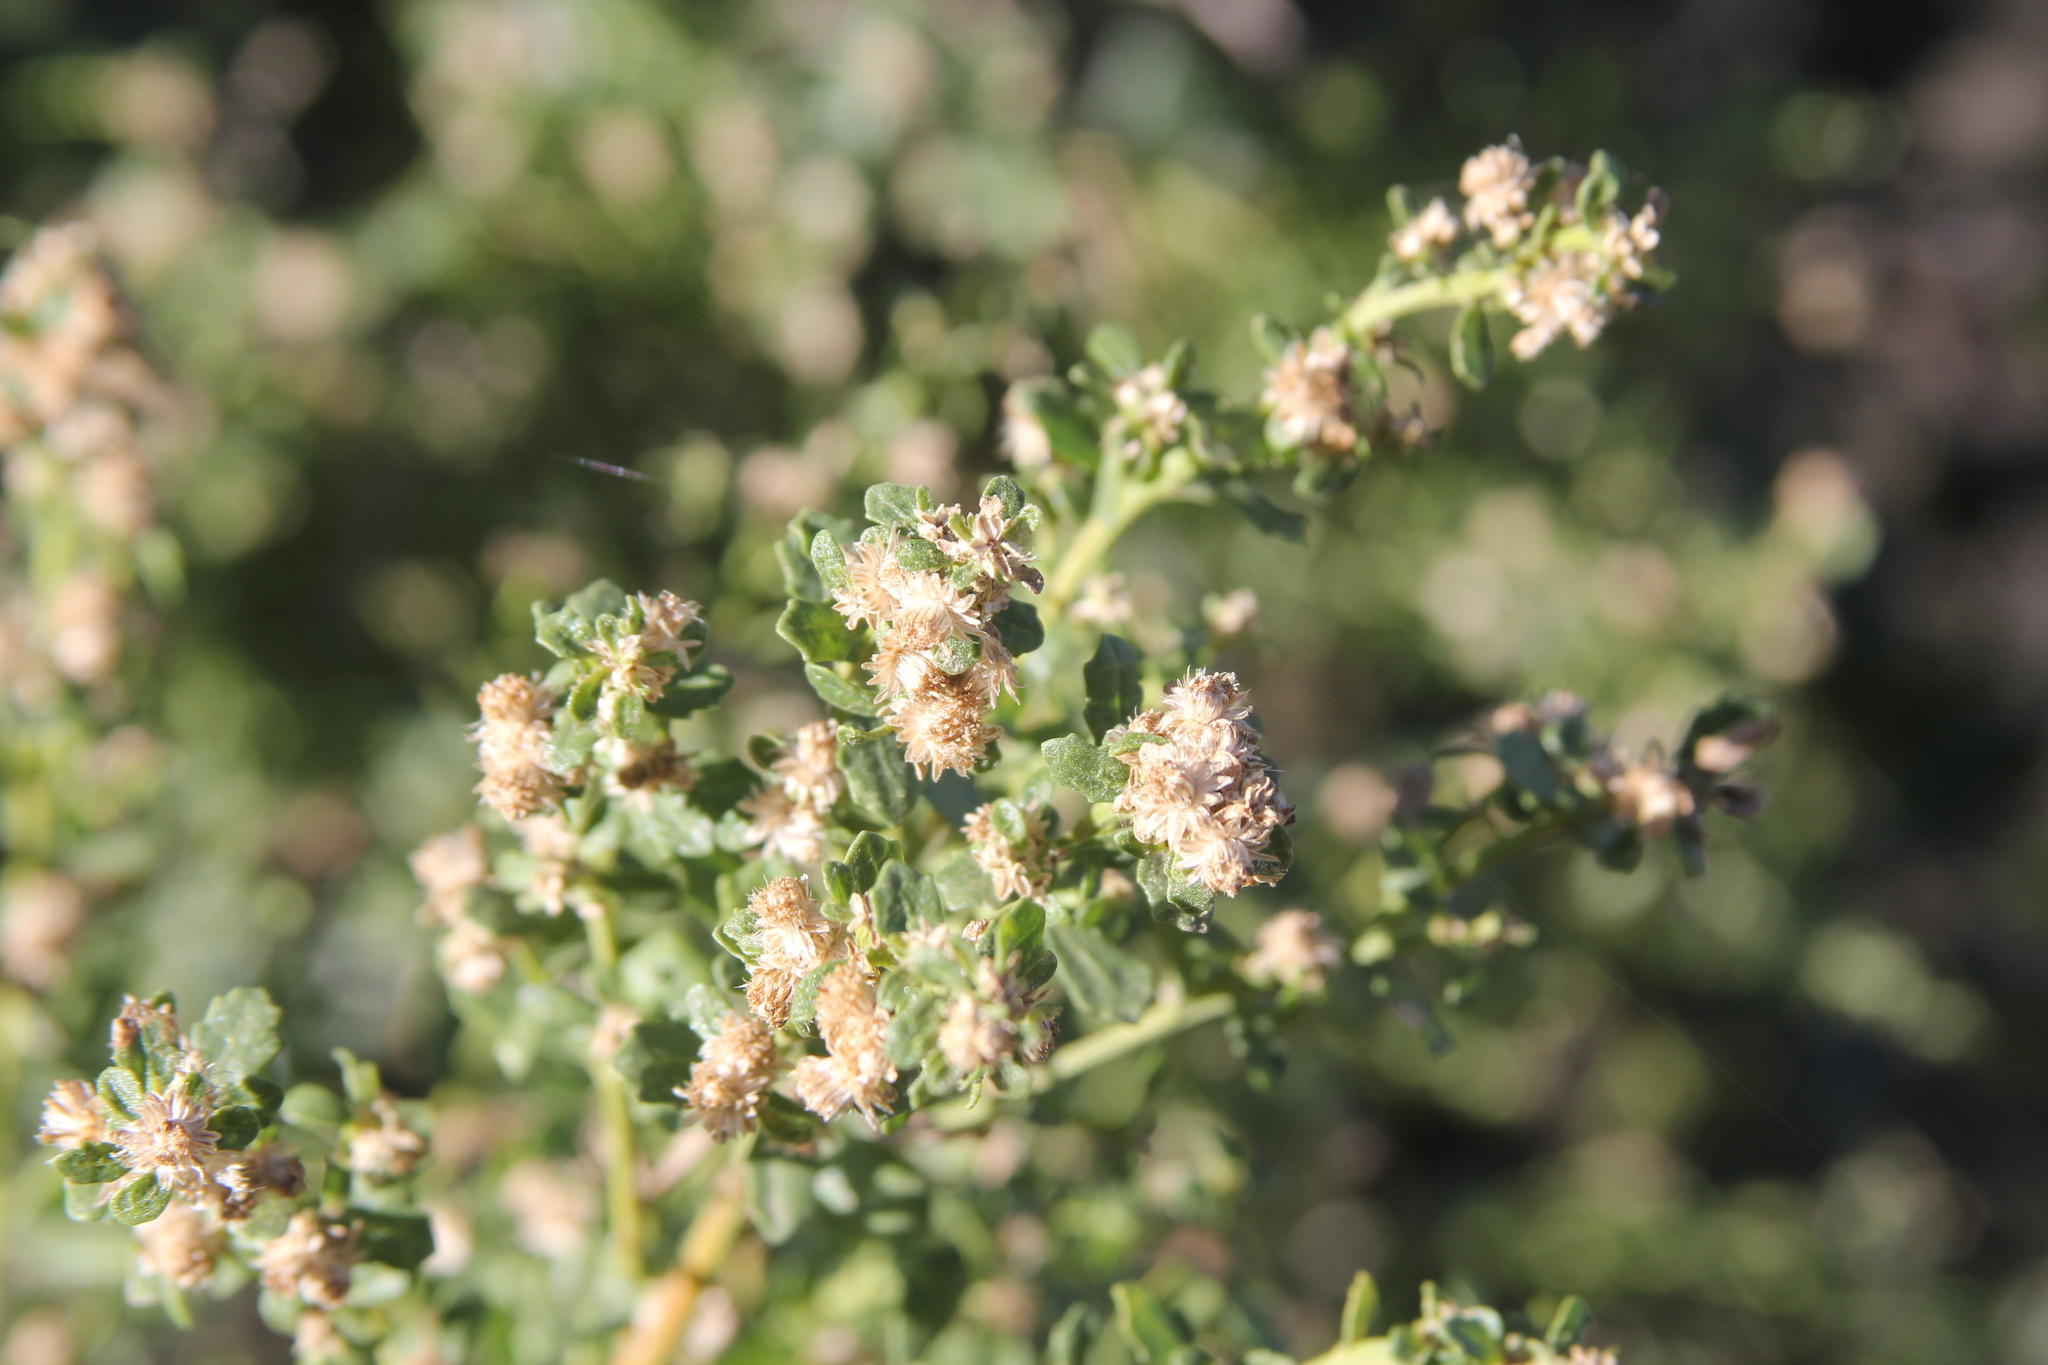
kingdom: Plantae
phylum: Tracheophyta
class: Magnoliopsida
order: Asterales
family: Asteraceae
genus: Baccharis
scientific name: Baccharis pilularis
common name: Coyotebrush
